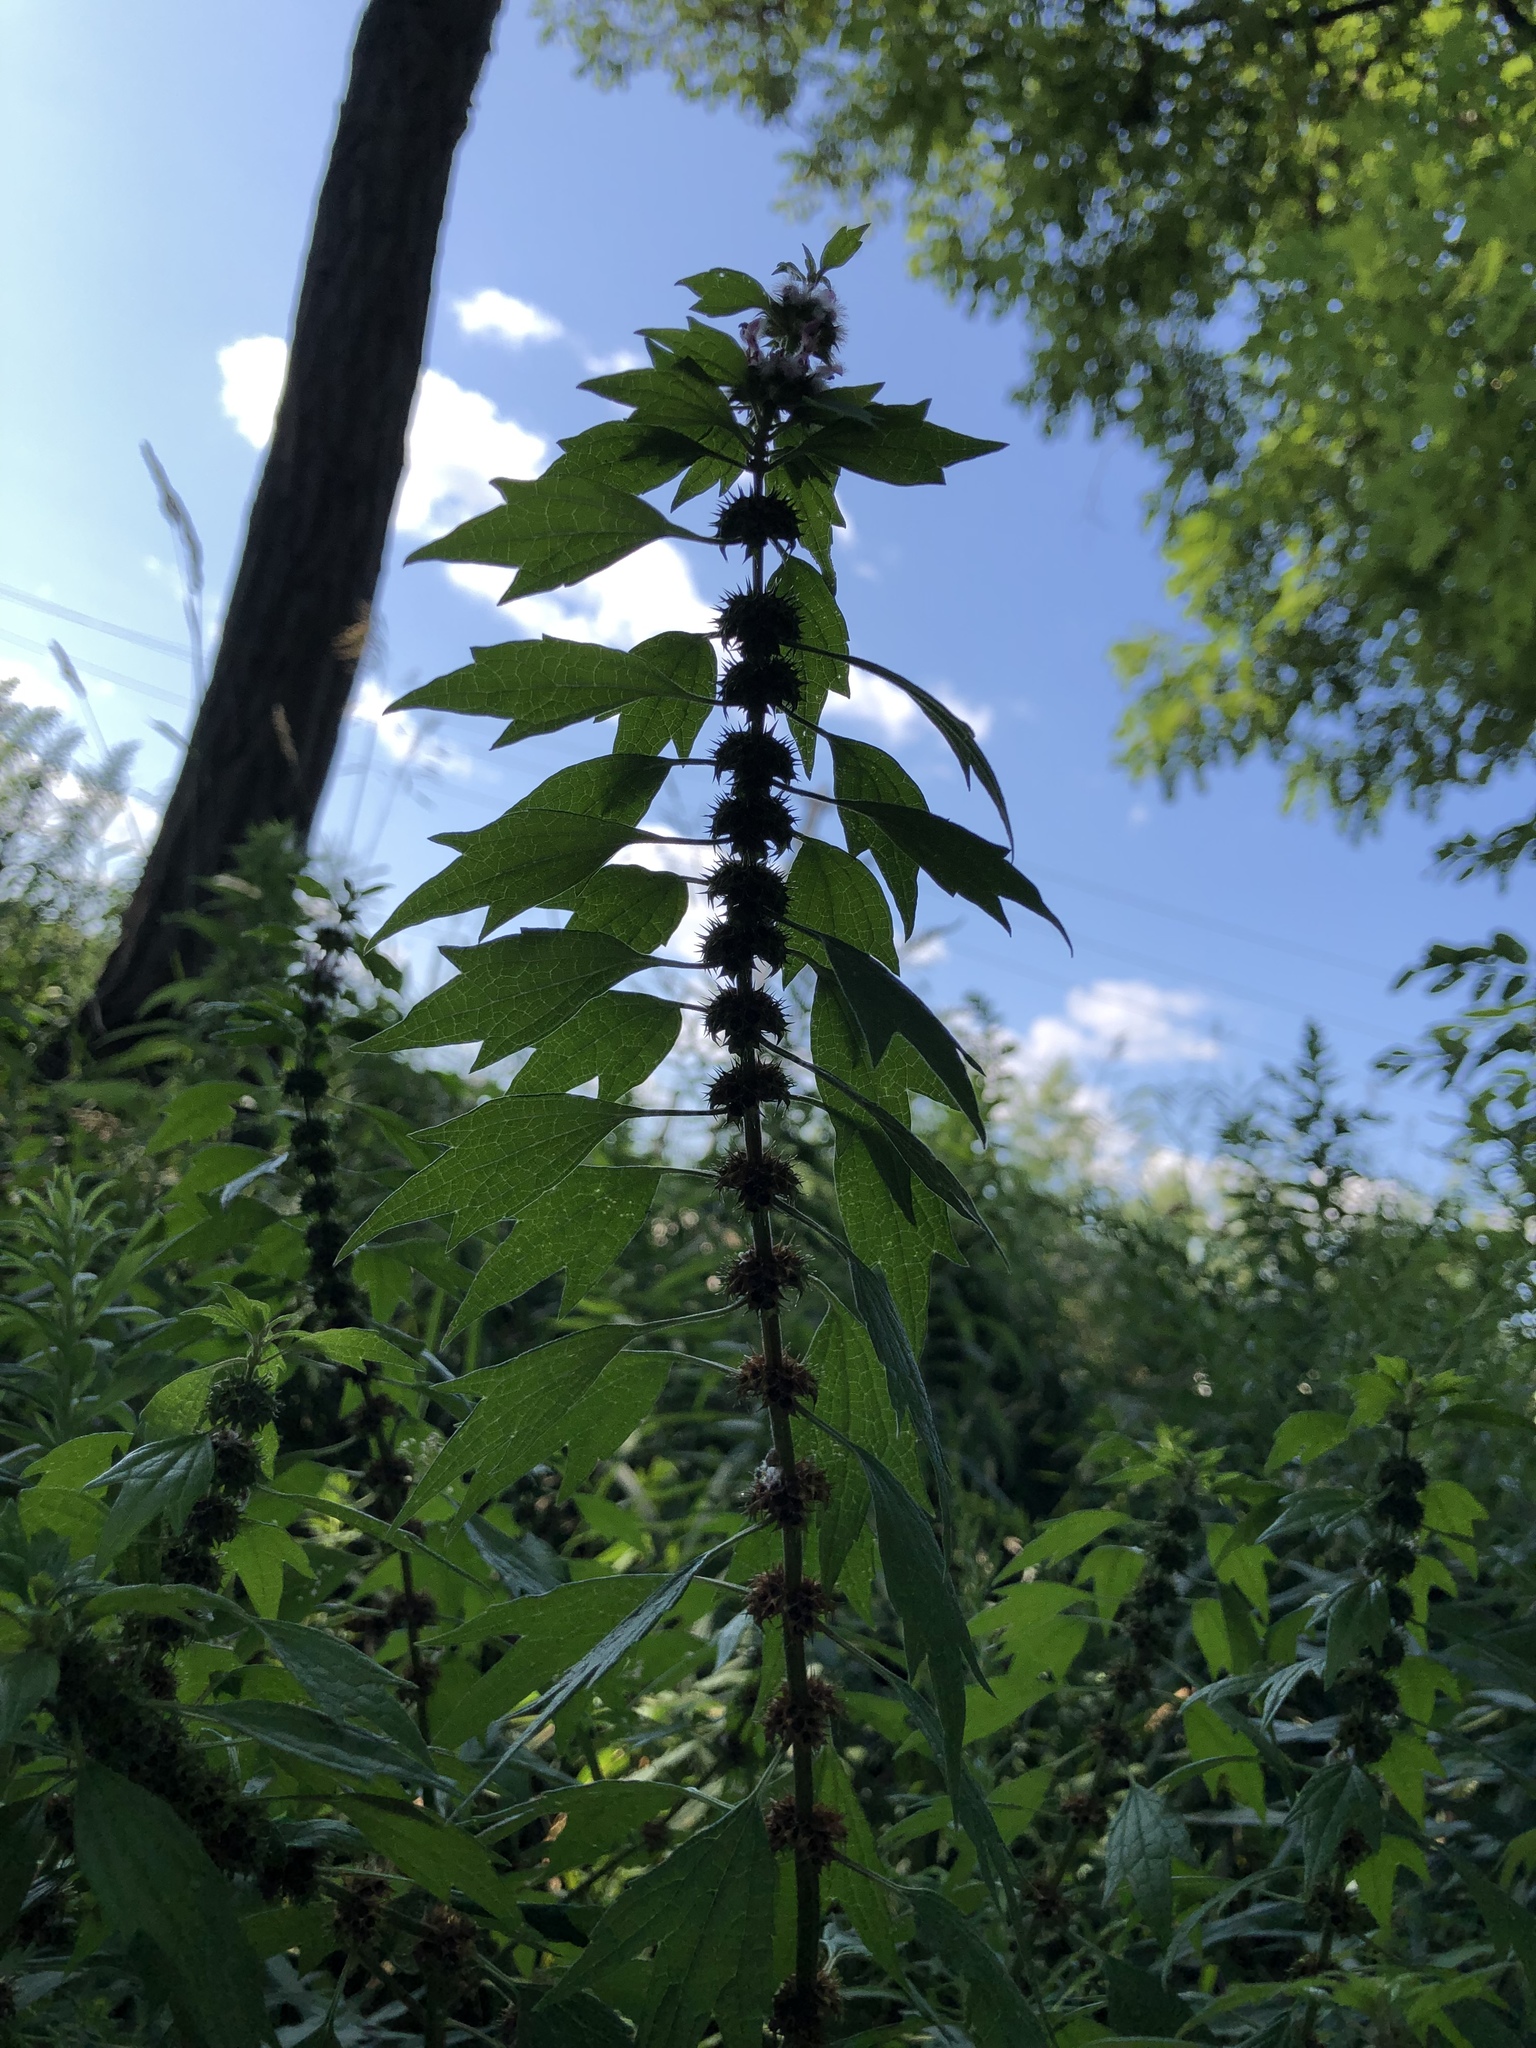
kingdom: Plantae
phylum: Tracheophyta
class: Magnoliopsida
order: Lamiales
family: Lamiaceae
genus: Leonurus
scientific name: Leonurus cardiaca
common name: Motherwort
